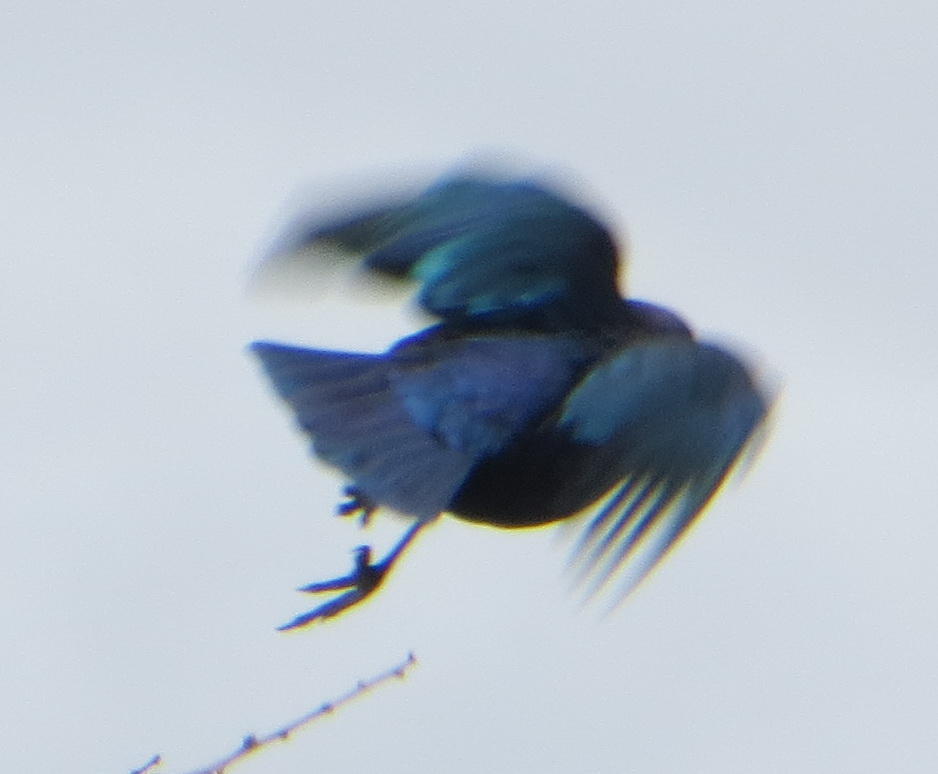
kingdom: Animalia
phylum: Chordata
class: Aves
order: Passeriformes
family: Sturnidae
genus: Lamprotornis
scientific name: Lamprotornis nitens
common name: Cape starling
